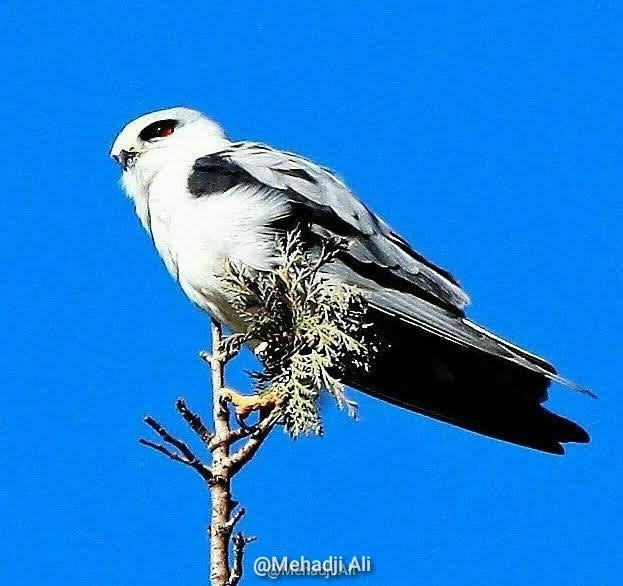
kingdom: Animalia
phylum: Chordata
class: Aves
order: Accipitriformes
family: Accipitridae
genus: Elanus
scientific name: Elanus caeruleus
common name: Black-winged kite
